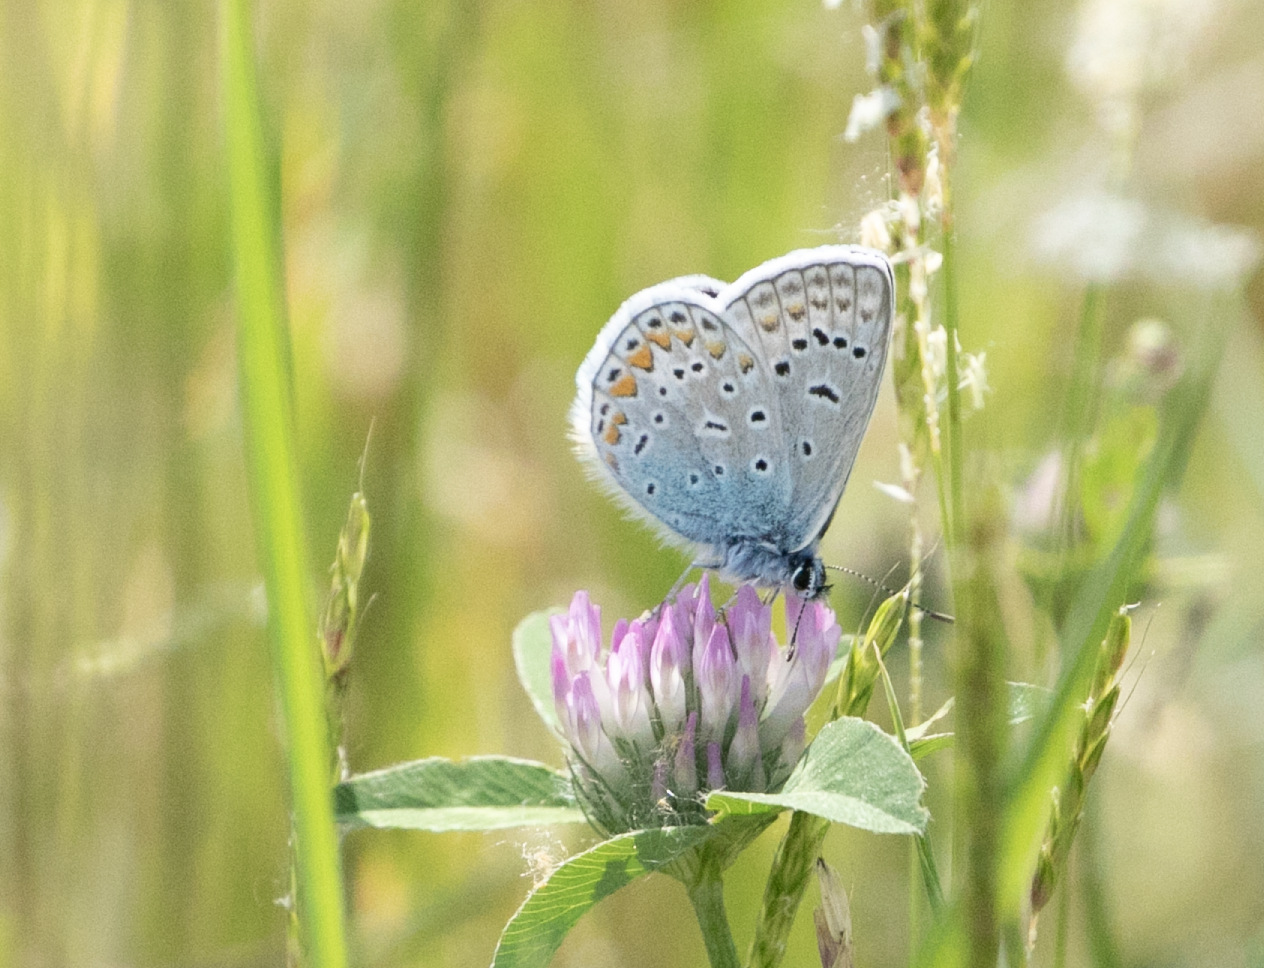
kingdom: Animalia
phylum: Arthropoda
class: Insecta
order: Lepidoptera
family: Lycaenidae
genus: Polyommatus
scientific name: Polyommatus icarus
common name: Common blue
